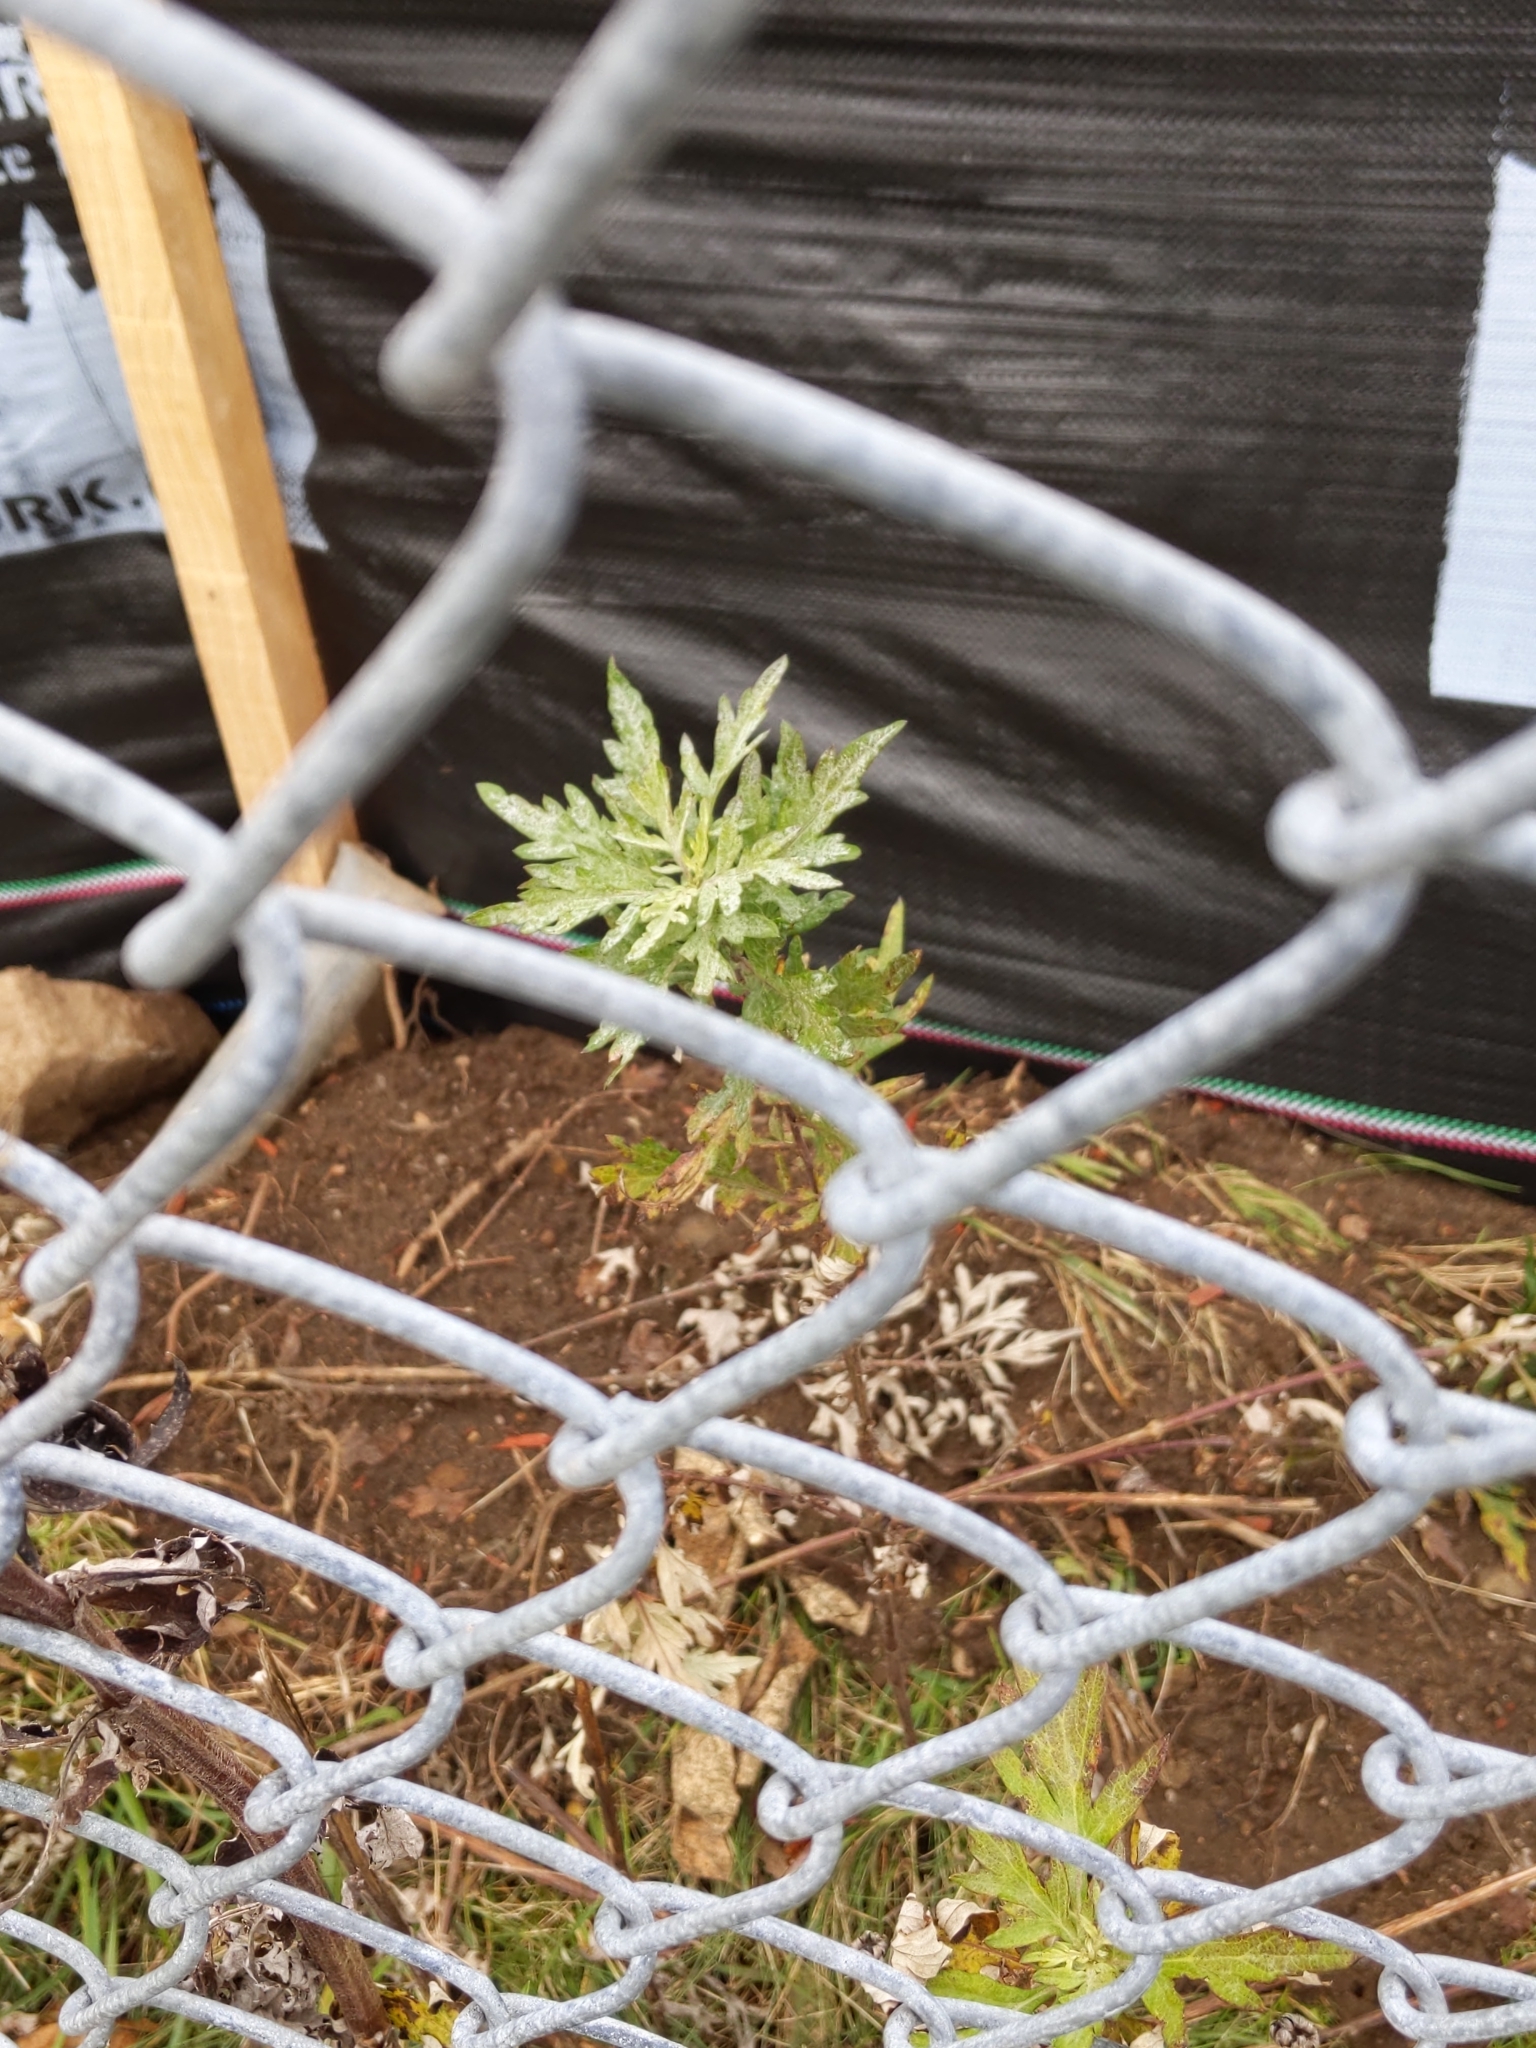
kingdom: Plantae
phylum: Tracheophyta
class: Magnoliopsida
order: Asterales
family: Asteraceae
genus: Artemisia
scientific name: Artemisia vulgaris
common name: Mugwort
